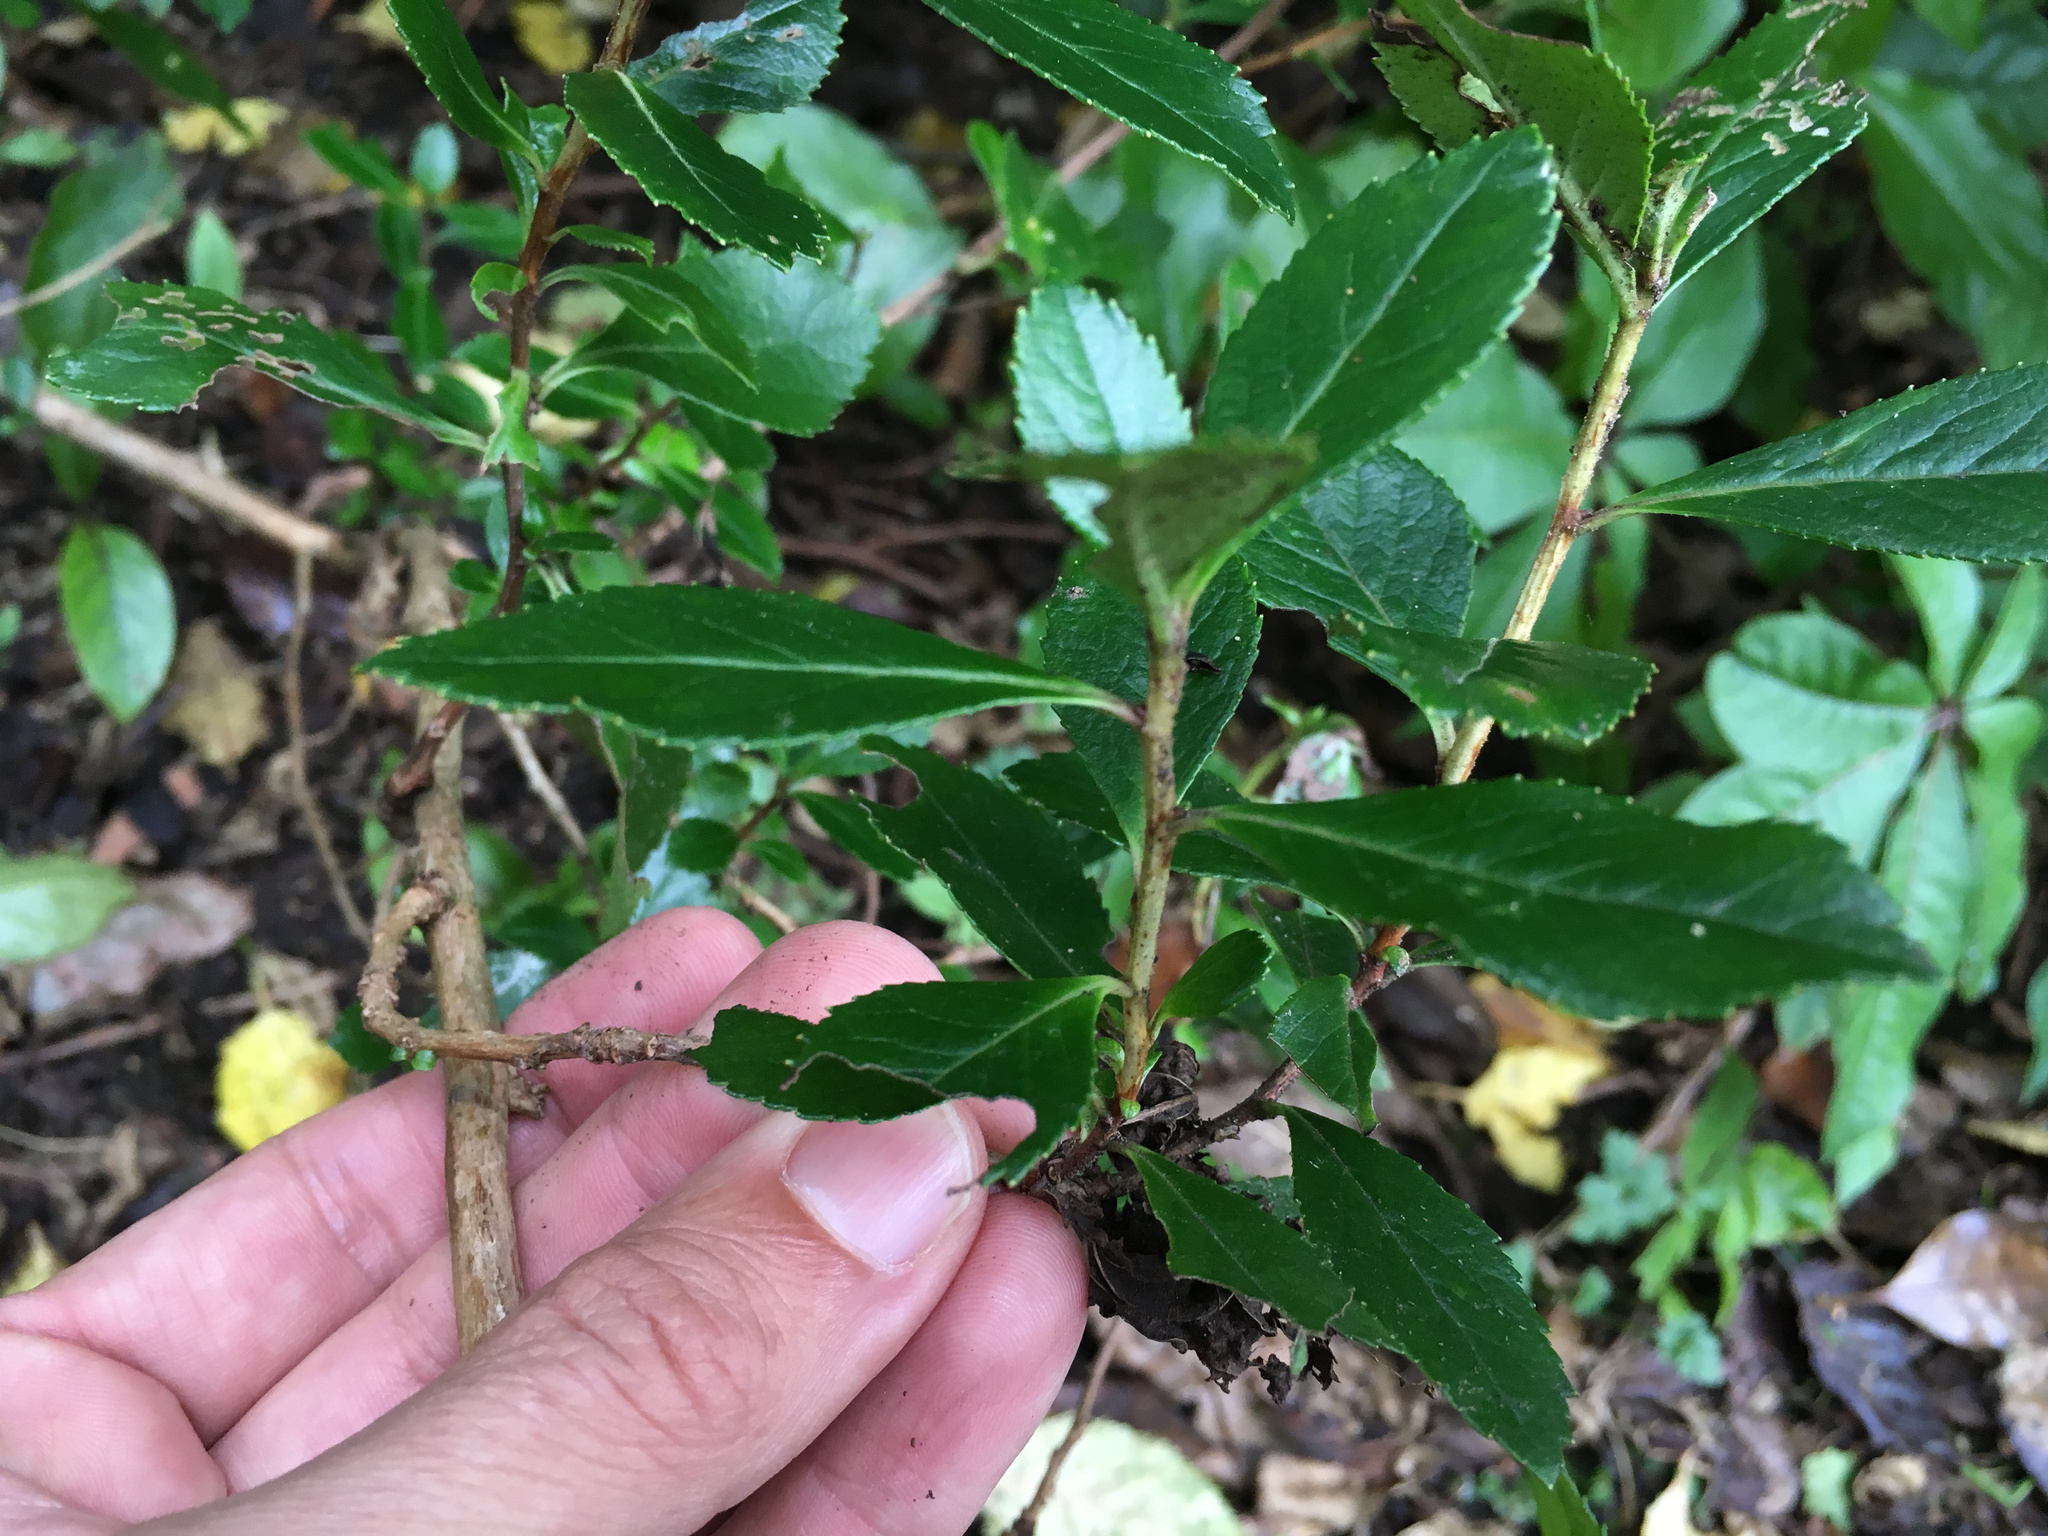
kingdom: Plantae
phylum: Tracheophyta
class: Magnoliopsida
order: Escalloniales
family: Escalloniaceae
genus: Escallonia
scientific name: Escallonia rubra
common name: Redclaws
